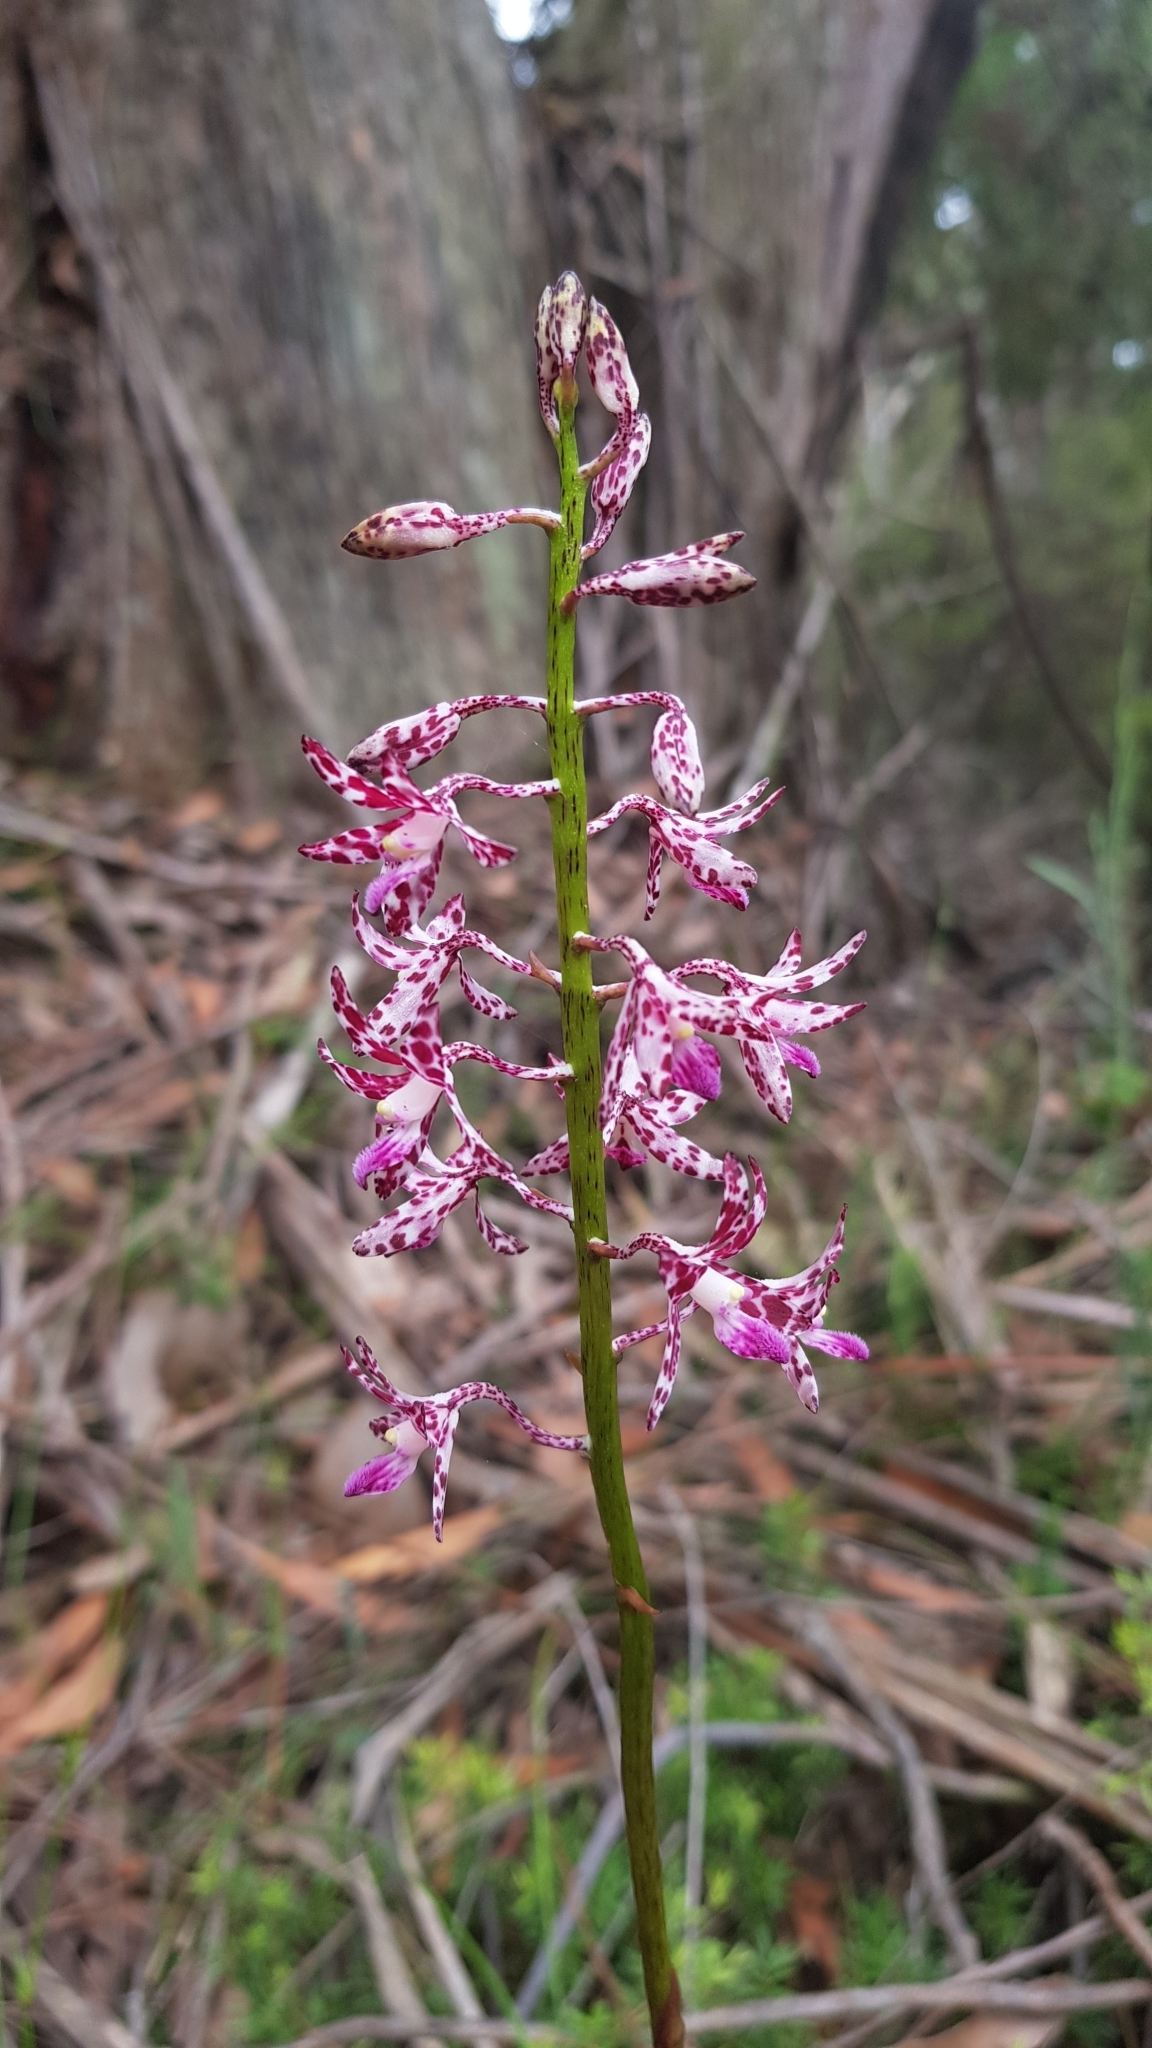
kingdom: Plantae
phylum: Tracheophyta
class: Liliopsida
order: Asparagales
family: Orchidaceae
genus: Dipodium
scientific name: Dipodium variegatum
